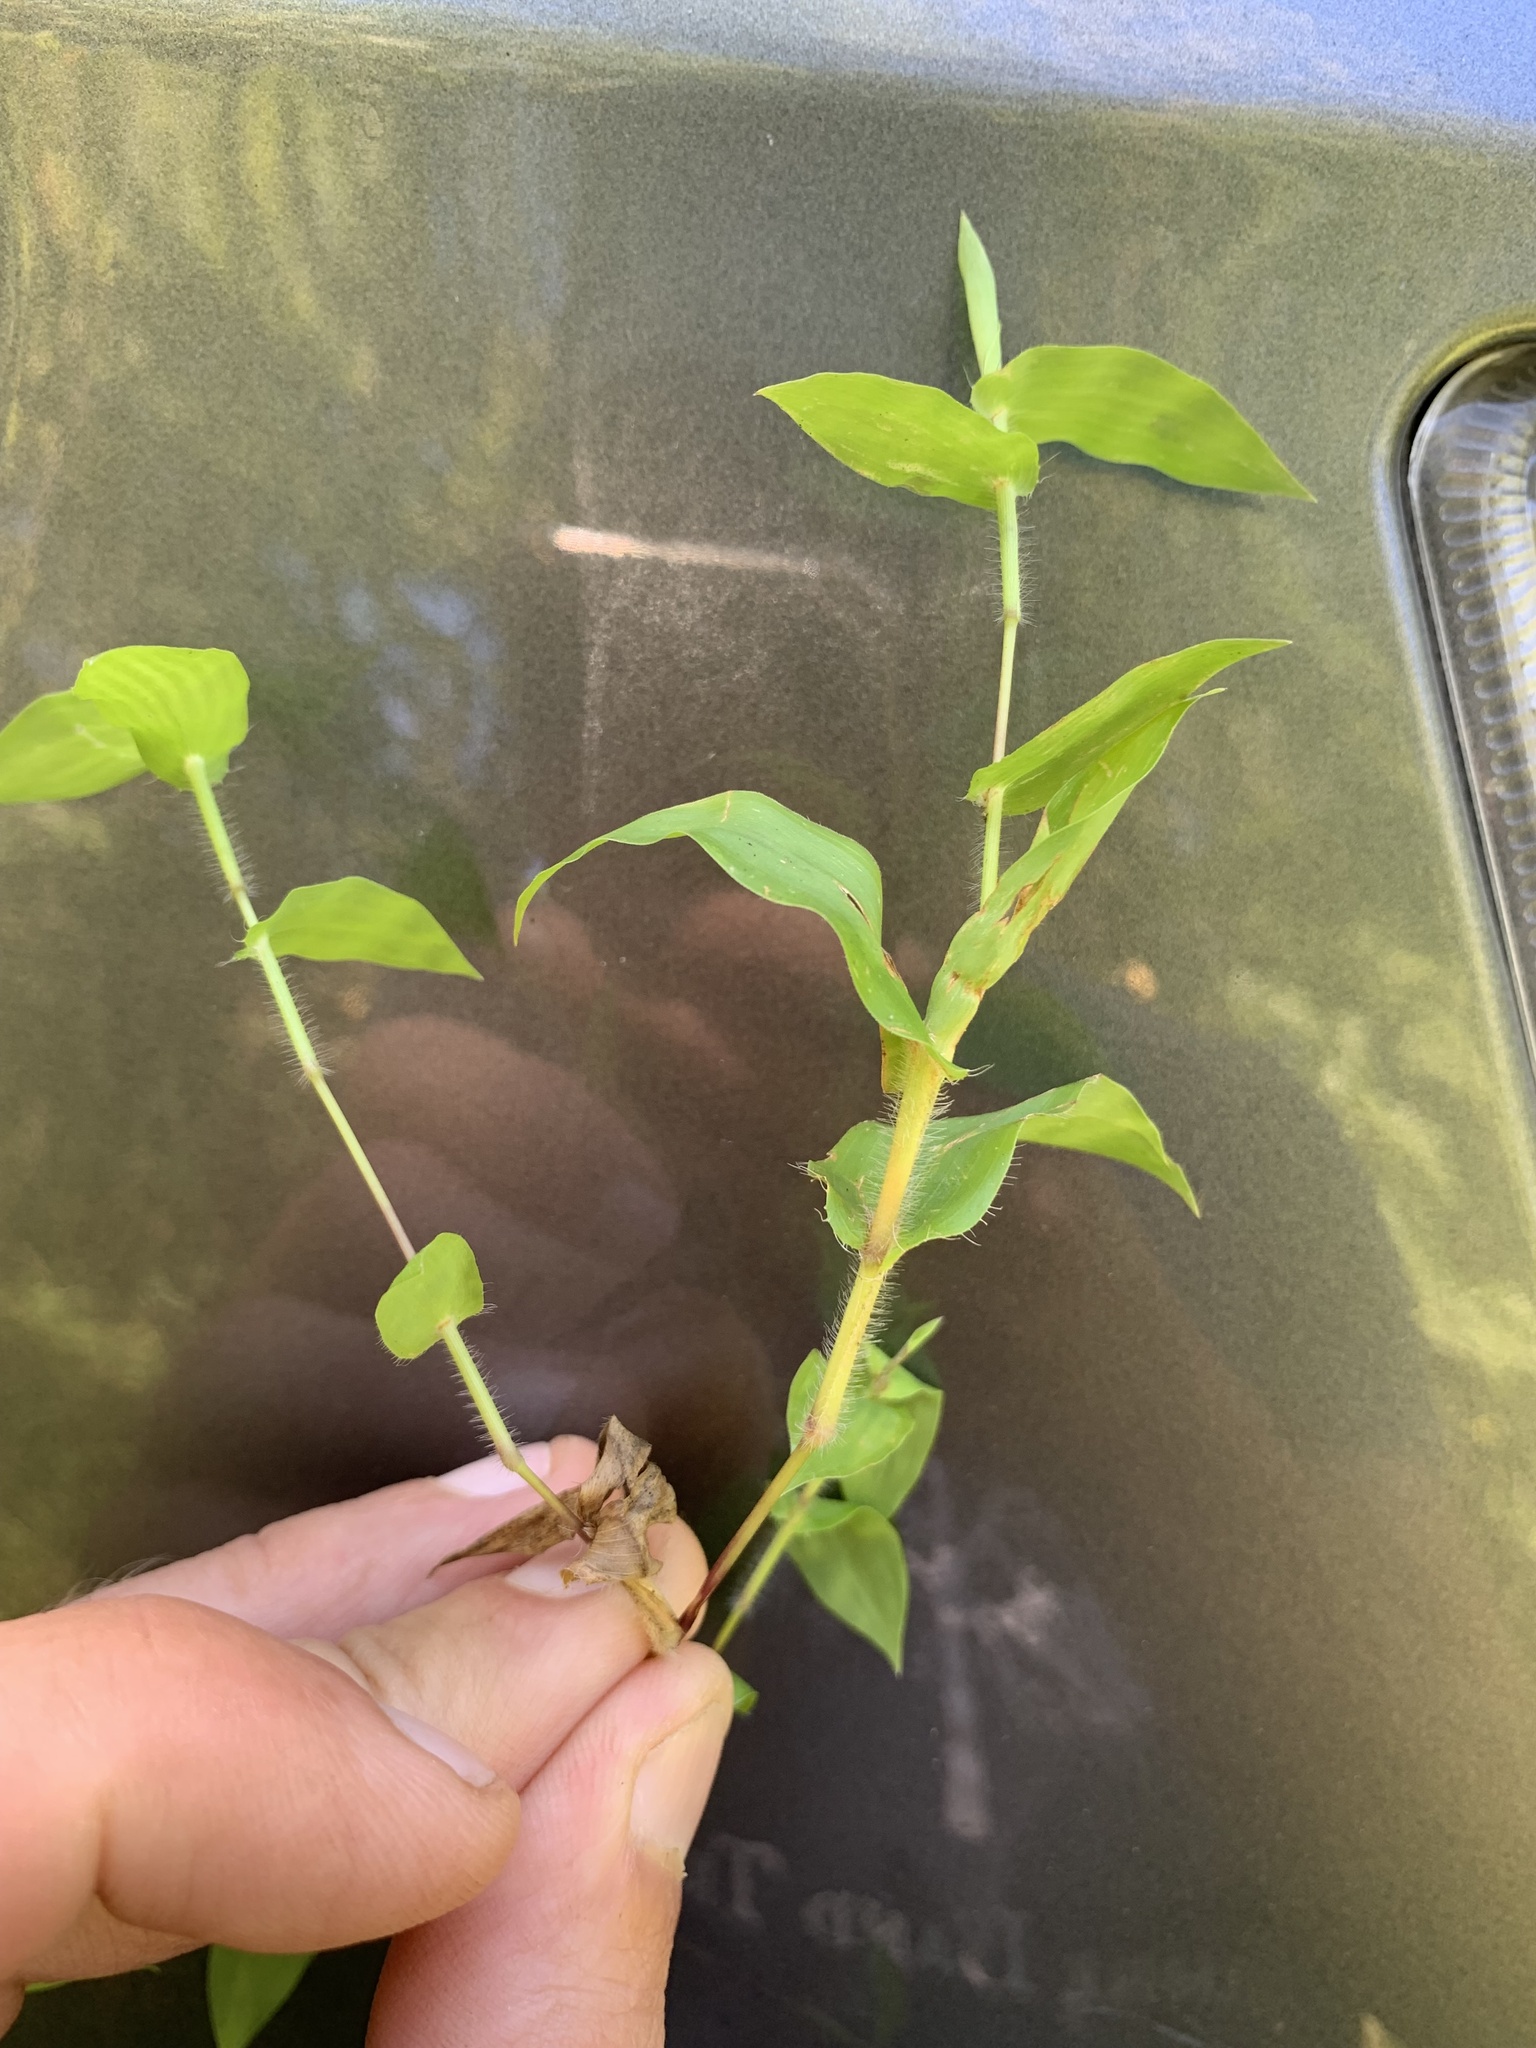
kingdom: Plantae
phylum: Tracheophyta
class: Liliopsida
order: Poales
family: Poaceae
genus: Arthraxon
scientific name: Arthraxon hispidus
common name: Small carpgrass
